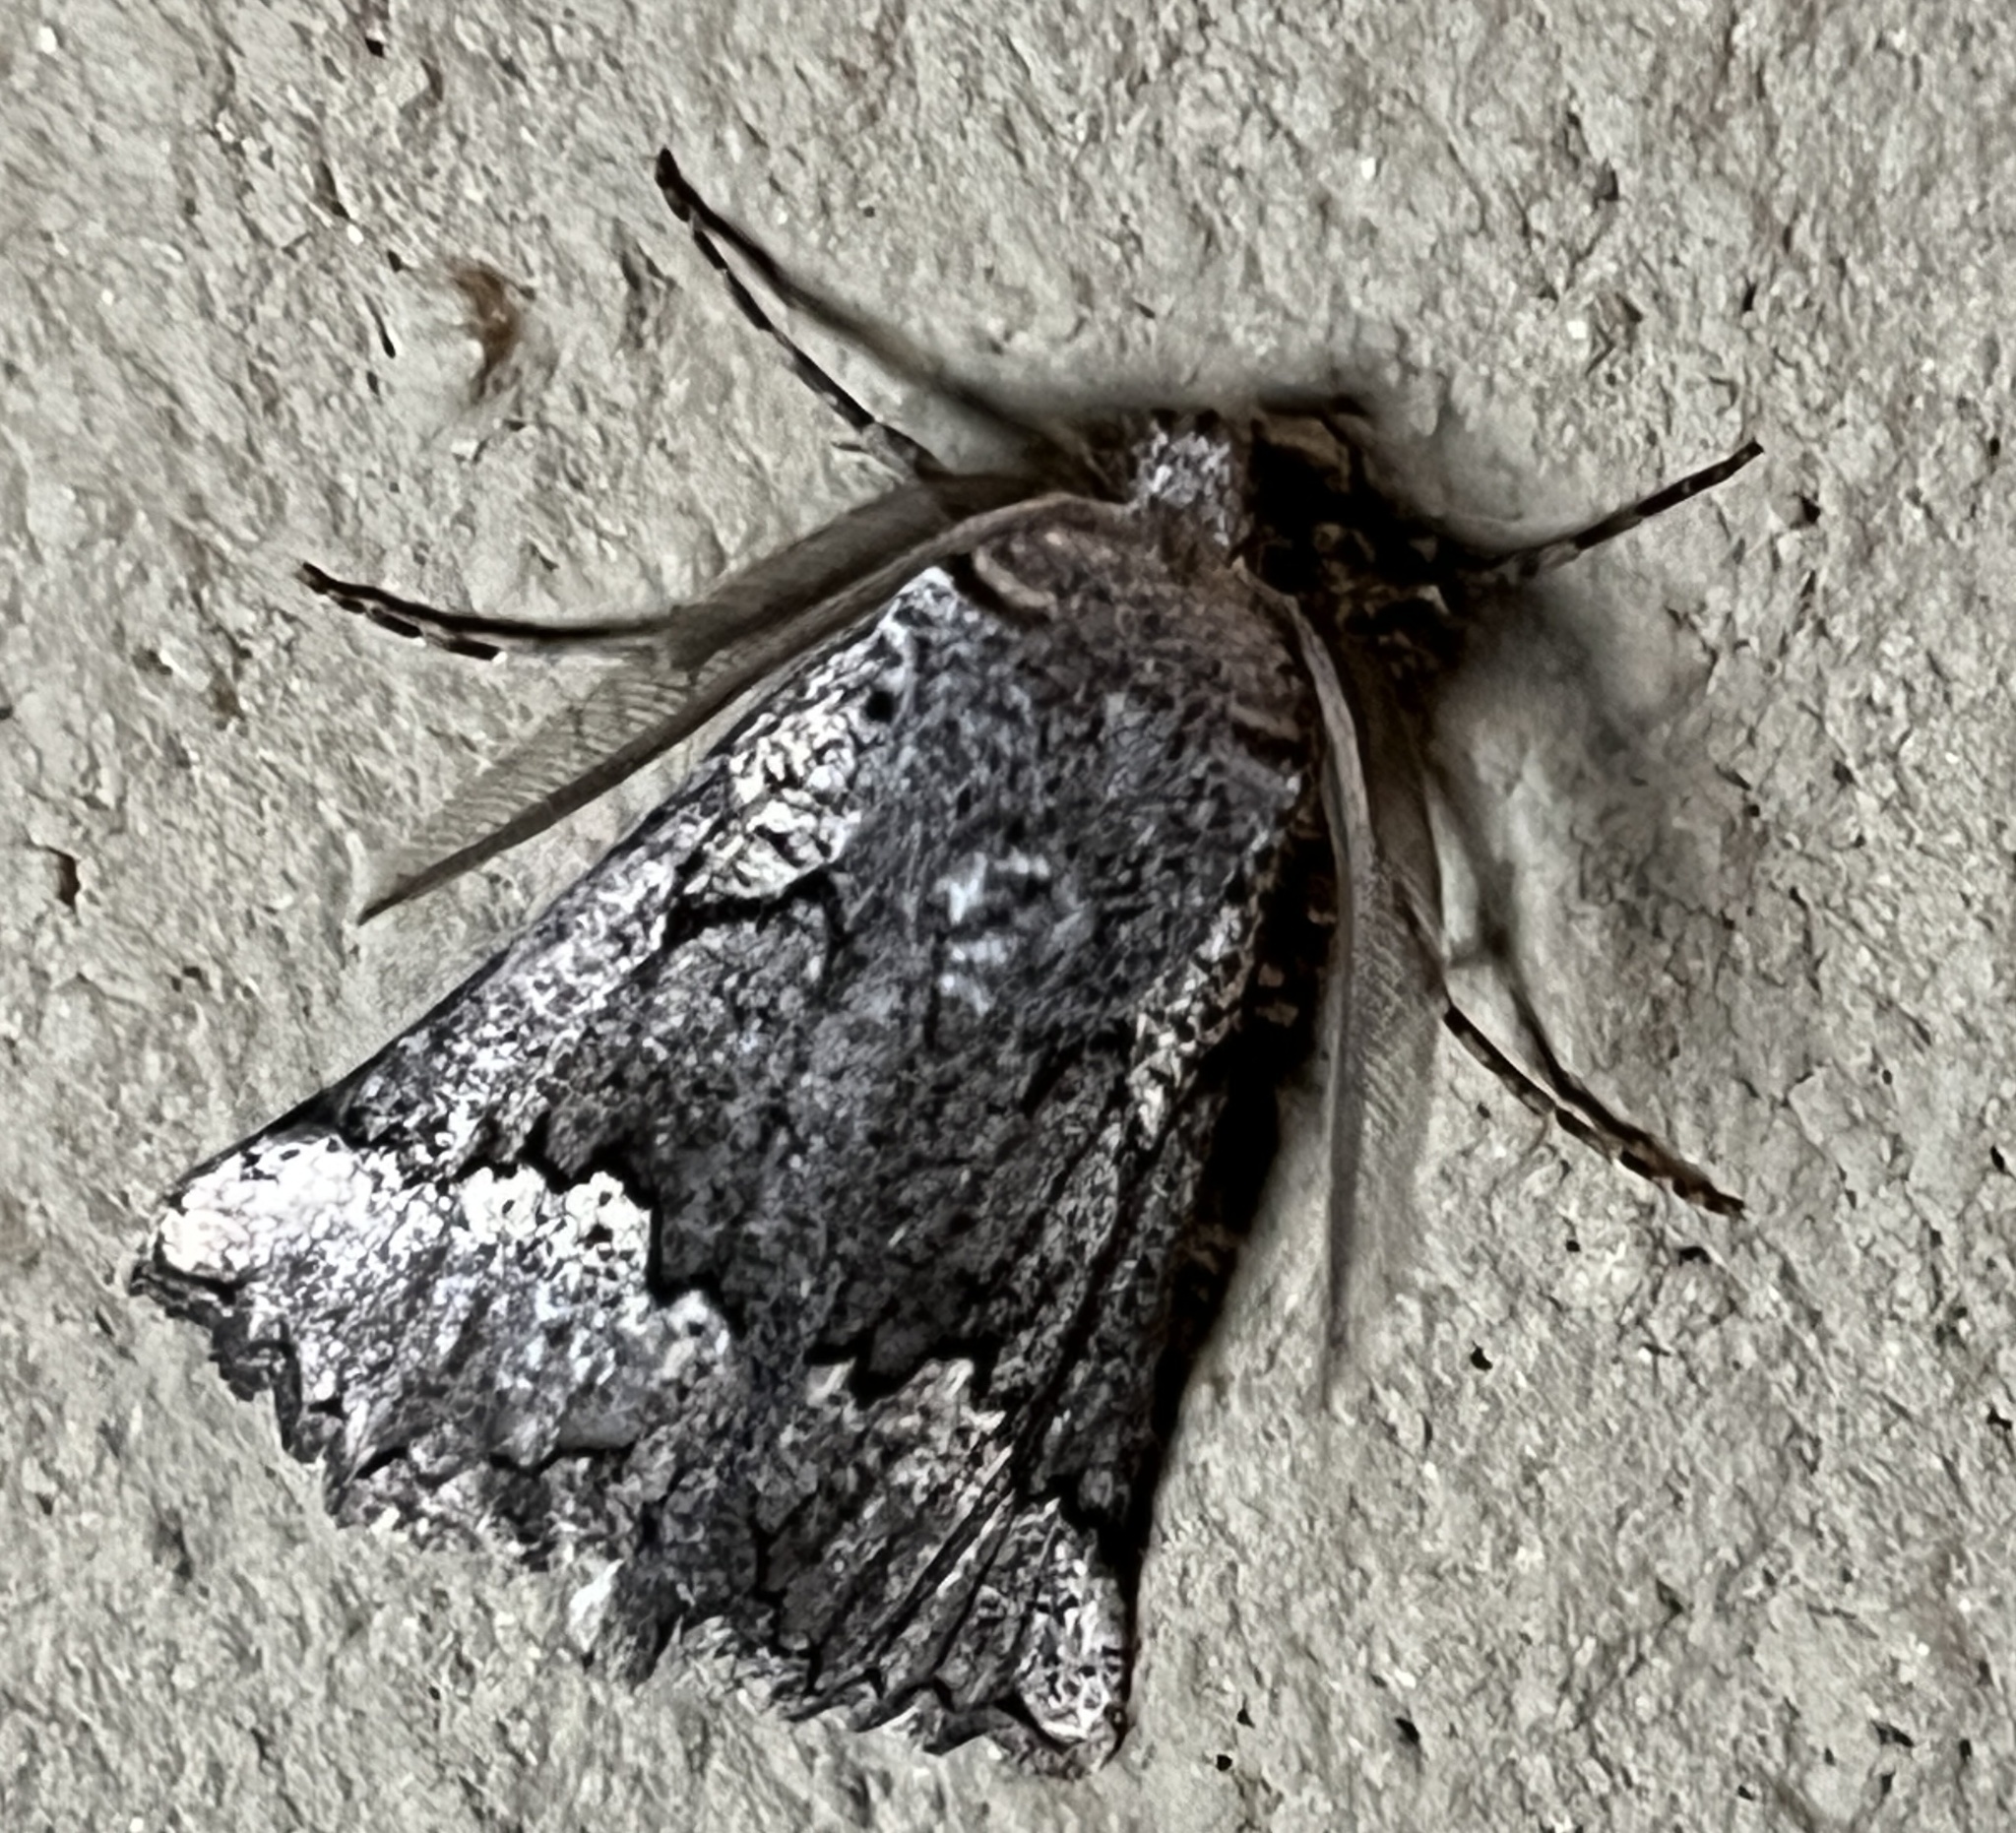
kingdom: Animalia
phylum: Arthropoda
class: Insecta
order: Lepidoptera
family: Geometridae
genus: Axiodes
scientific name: Axiodes interscripta
